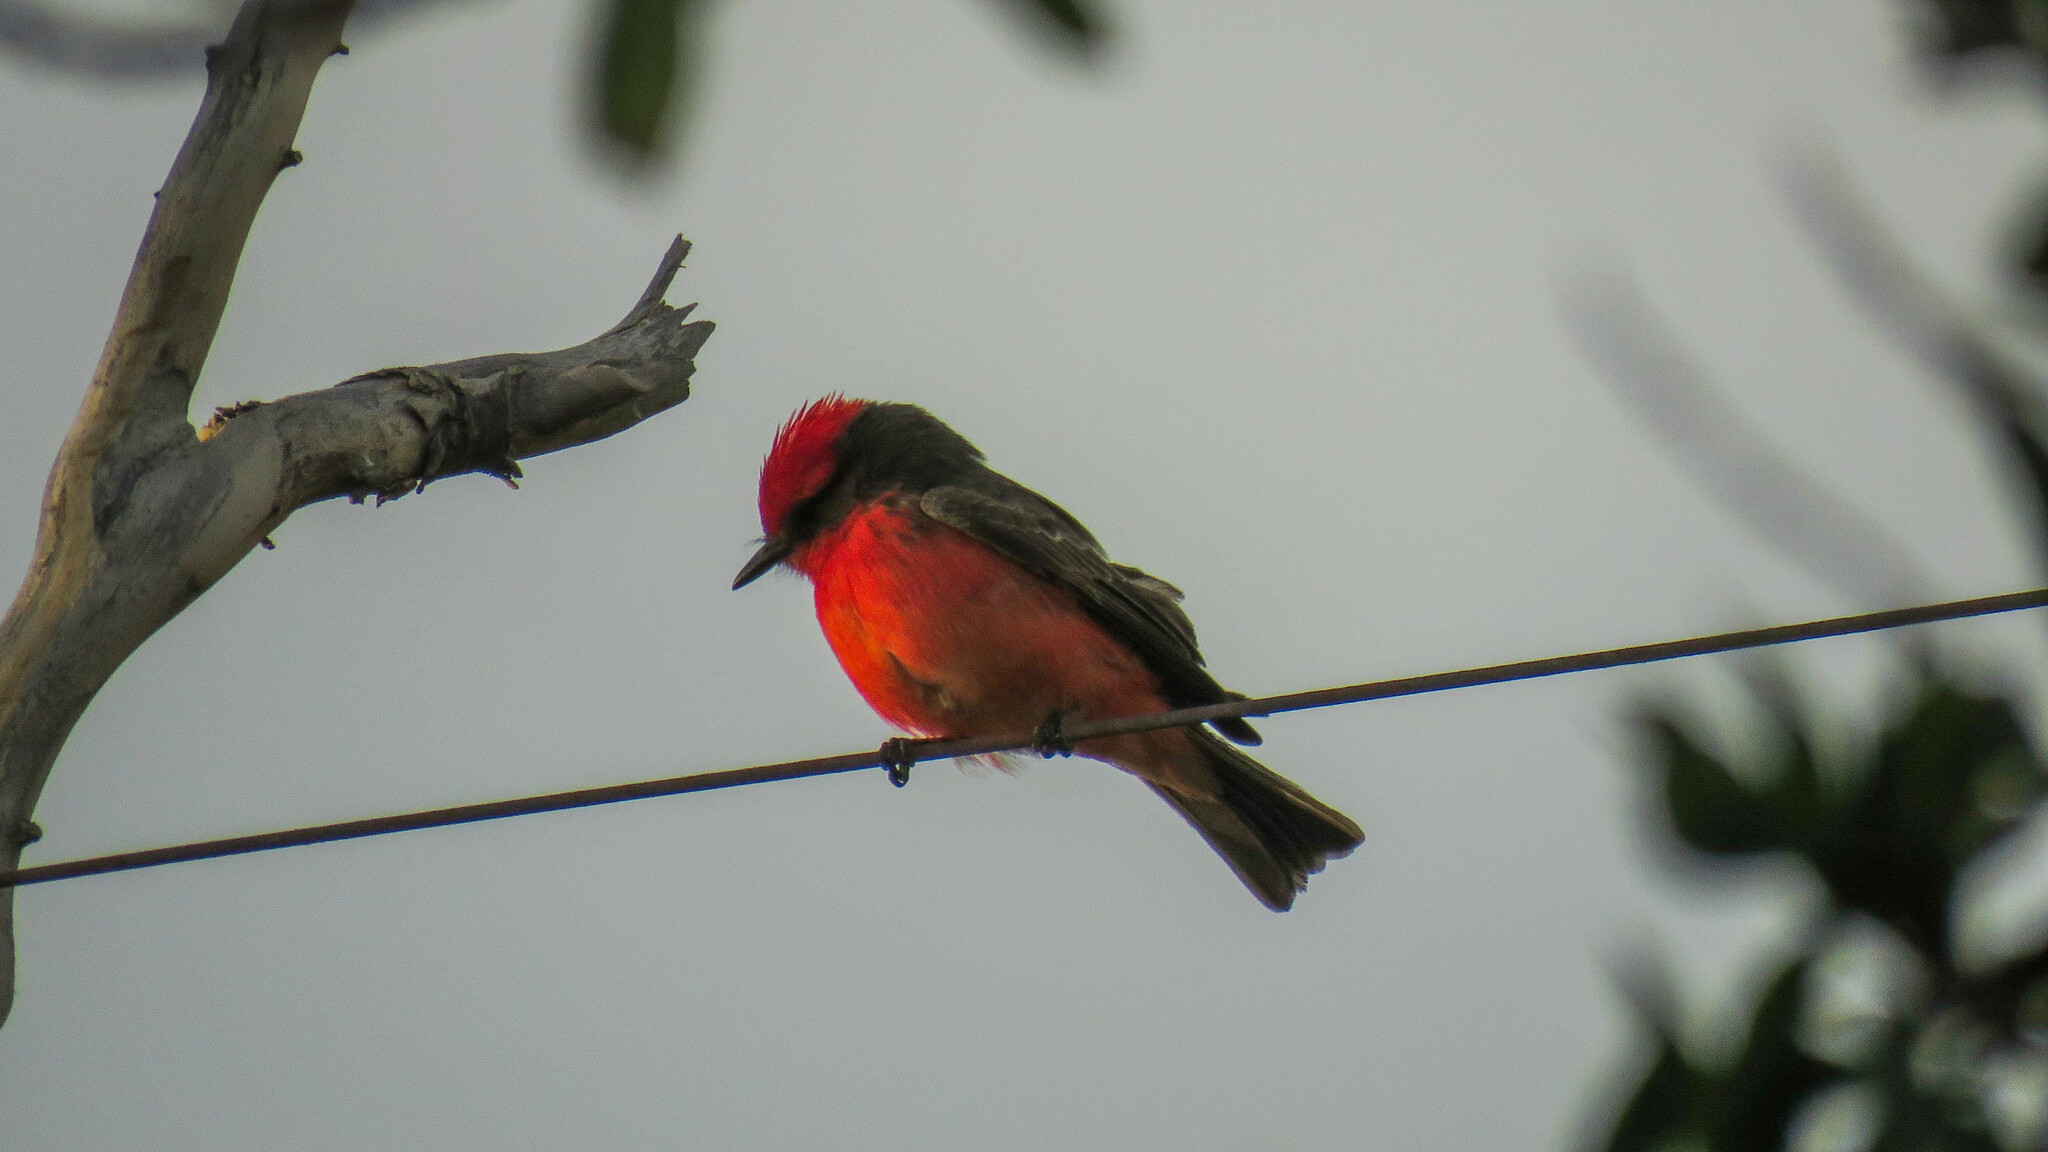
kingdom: Animalia
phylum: Chordata
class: Aves
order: Passeriformes
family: Tyrannidae
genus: Pyrocephalus
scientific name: Pyrocephalus rubinus
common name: Vermilion flycatcher
